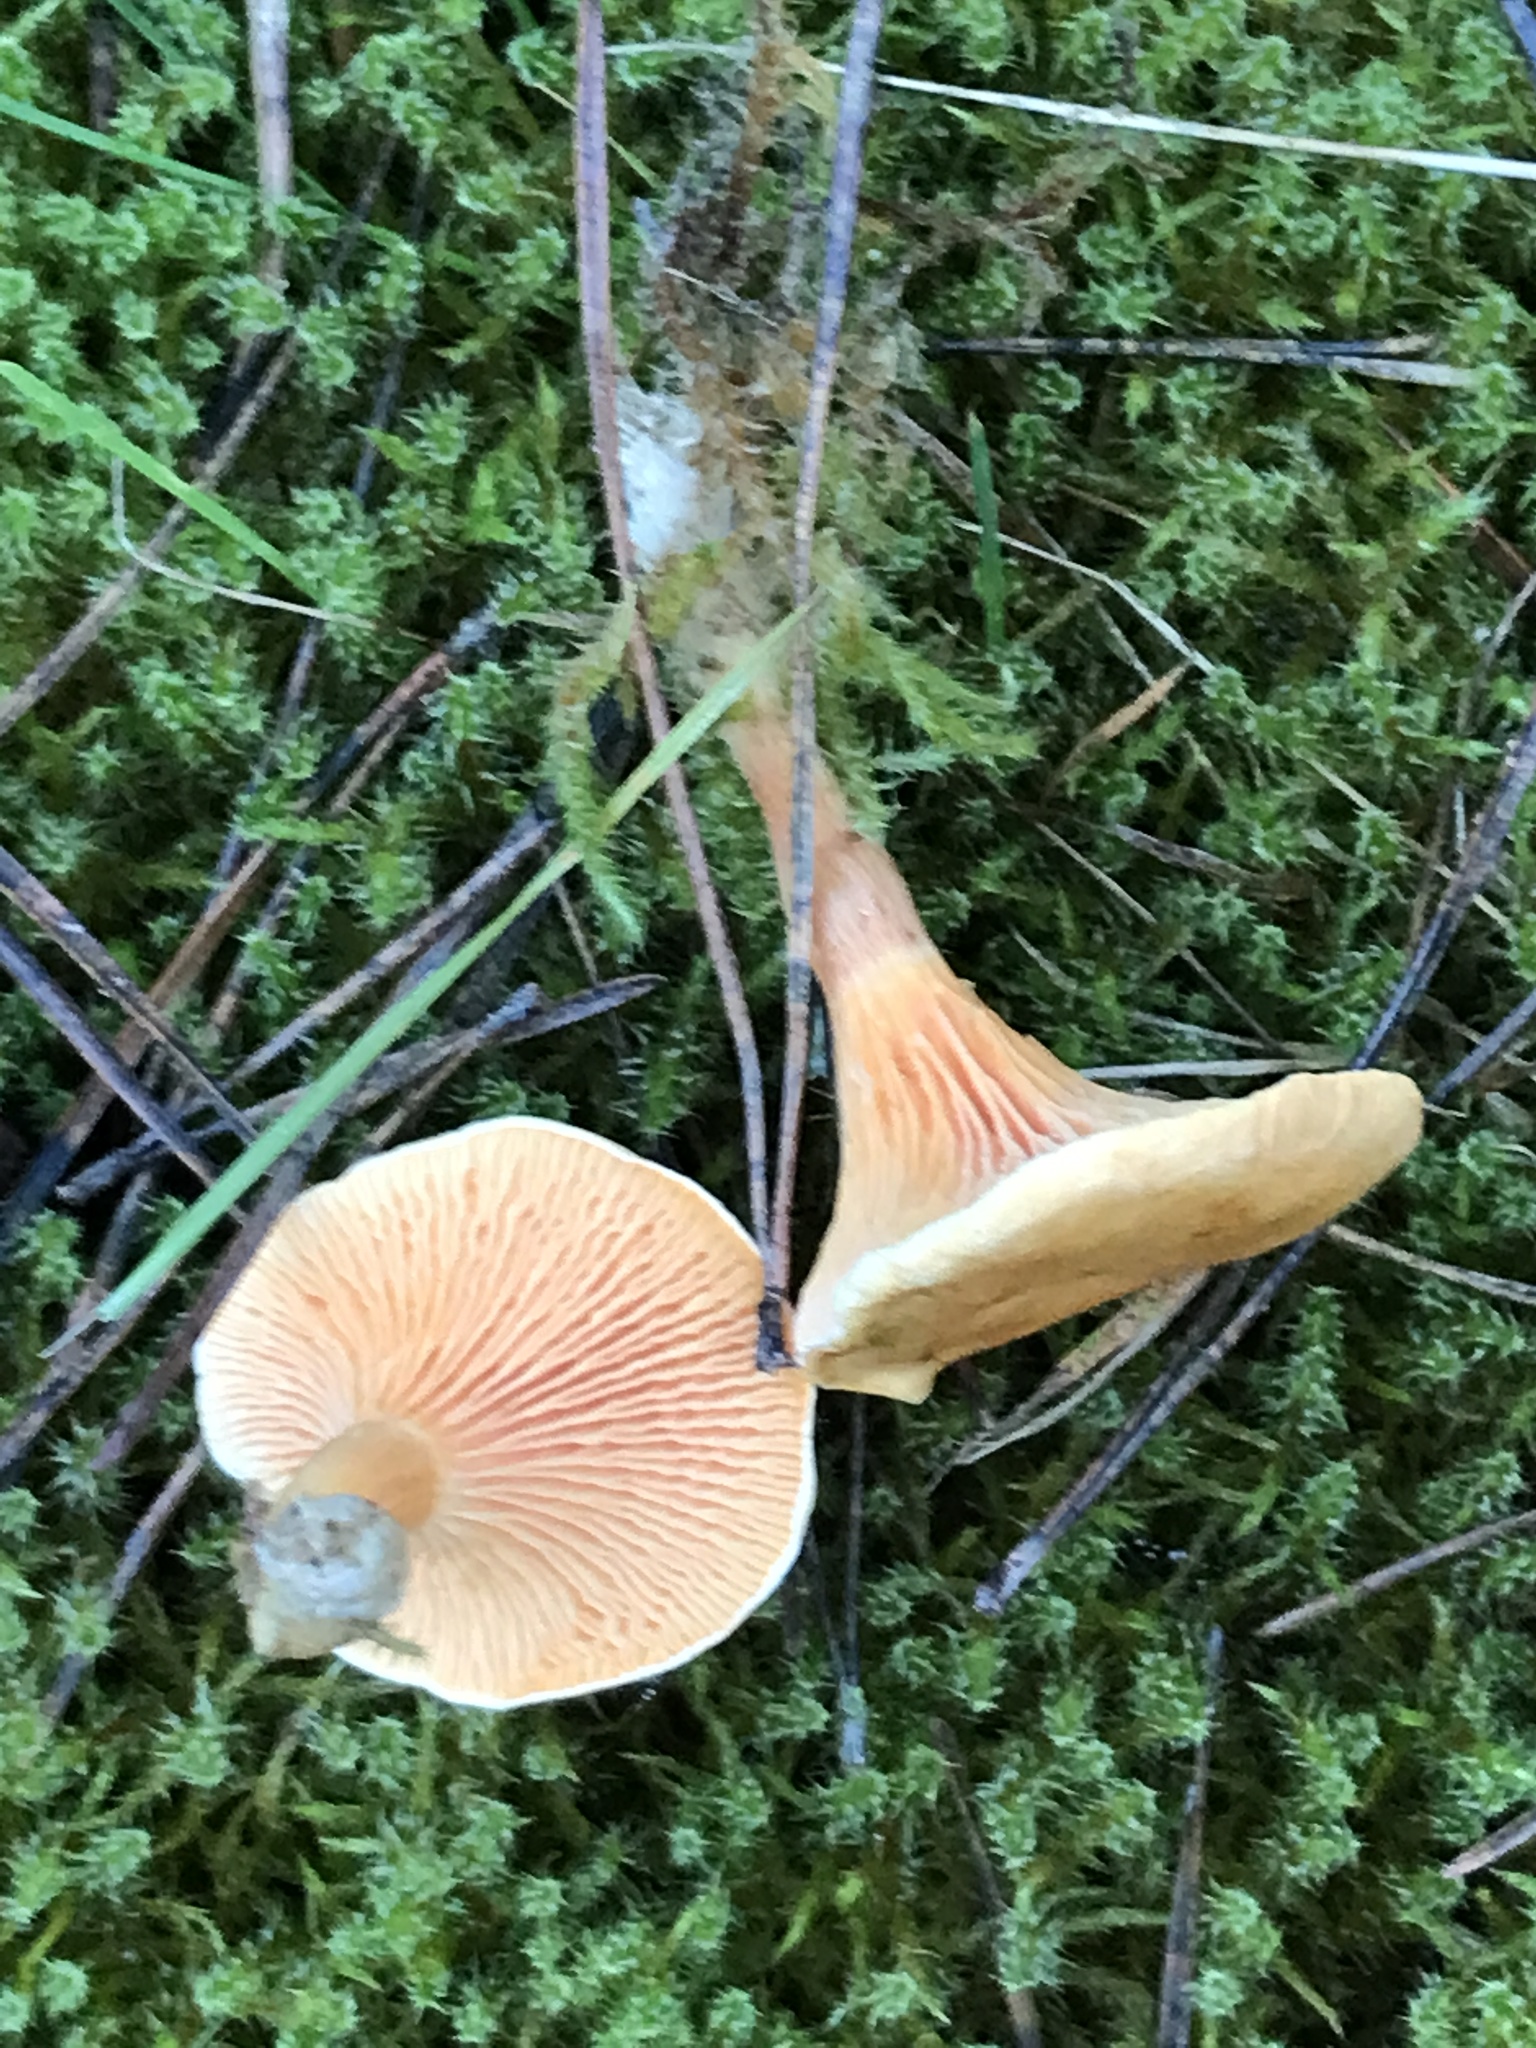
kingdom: Fungi
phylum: Basidiomycota
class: Agaricomycetes
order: Boletales
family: Hygrophoropsidaceae
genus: Hygrophoropsis
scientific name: Hygrophoropsis aurantiaca
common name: False chanterelle
